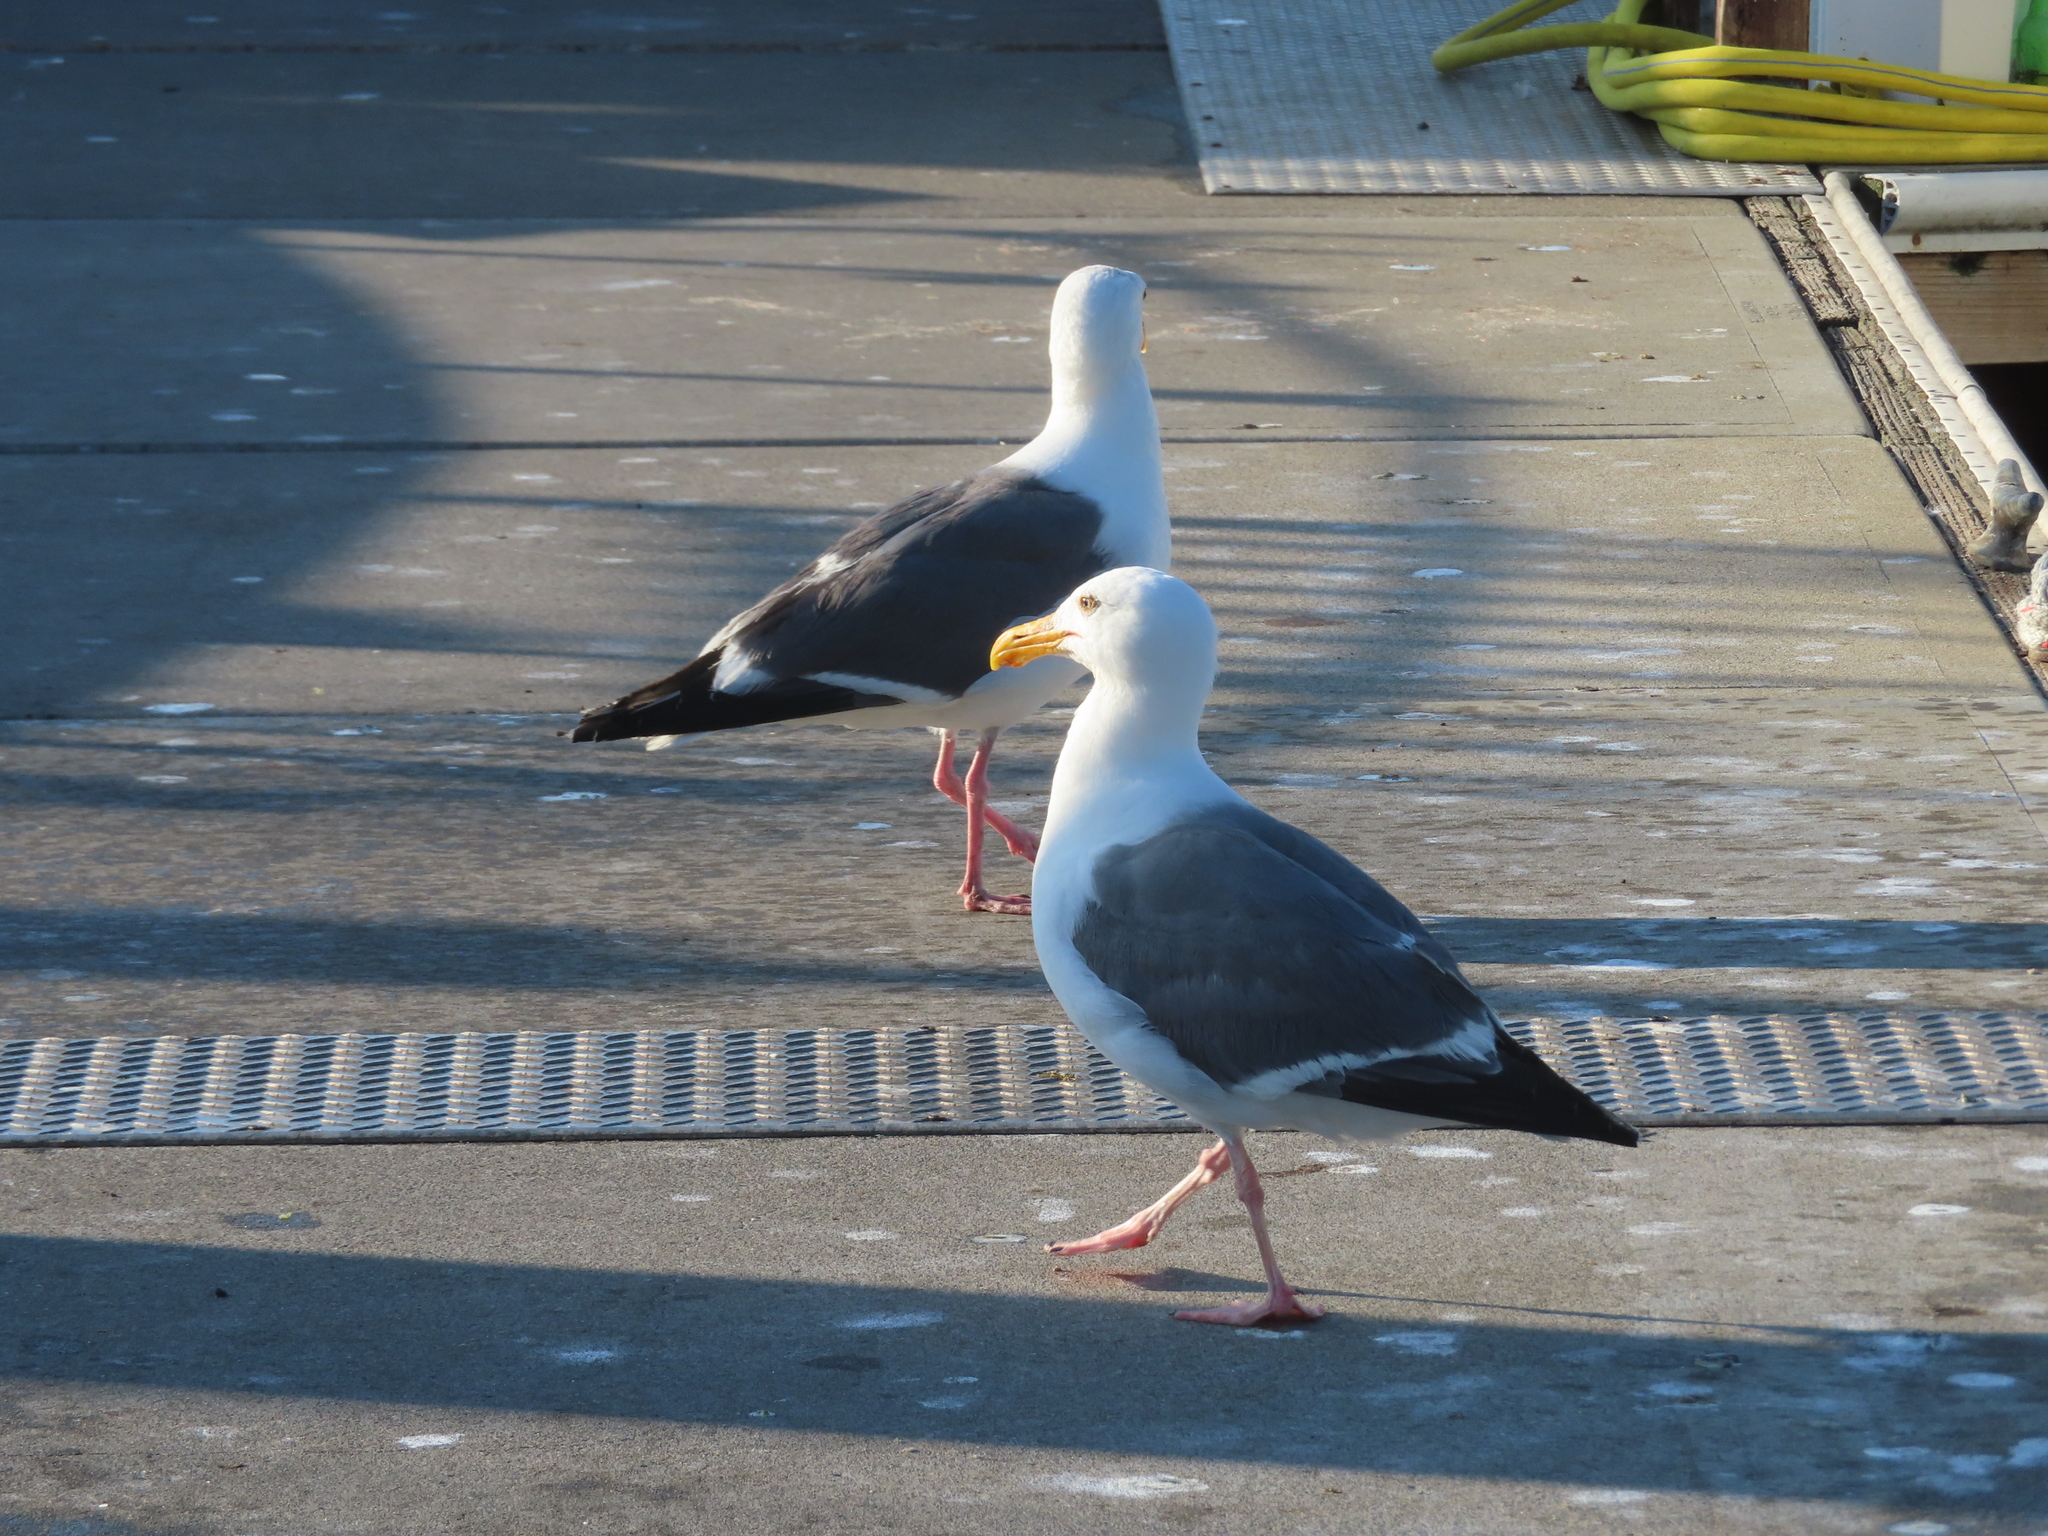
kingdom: Animalia
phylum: Chordata
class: Aves
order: Charadriiformes
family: Laridae
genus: Larus
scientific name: Larus occidentalis
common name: Western gull
